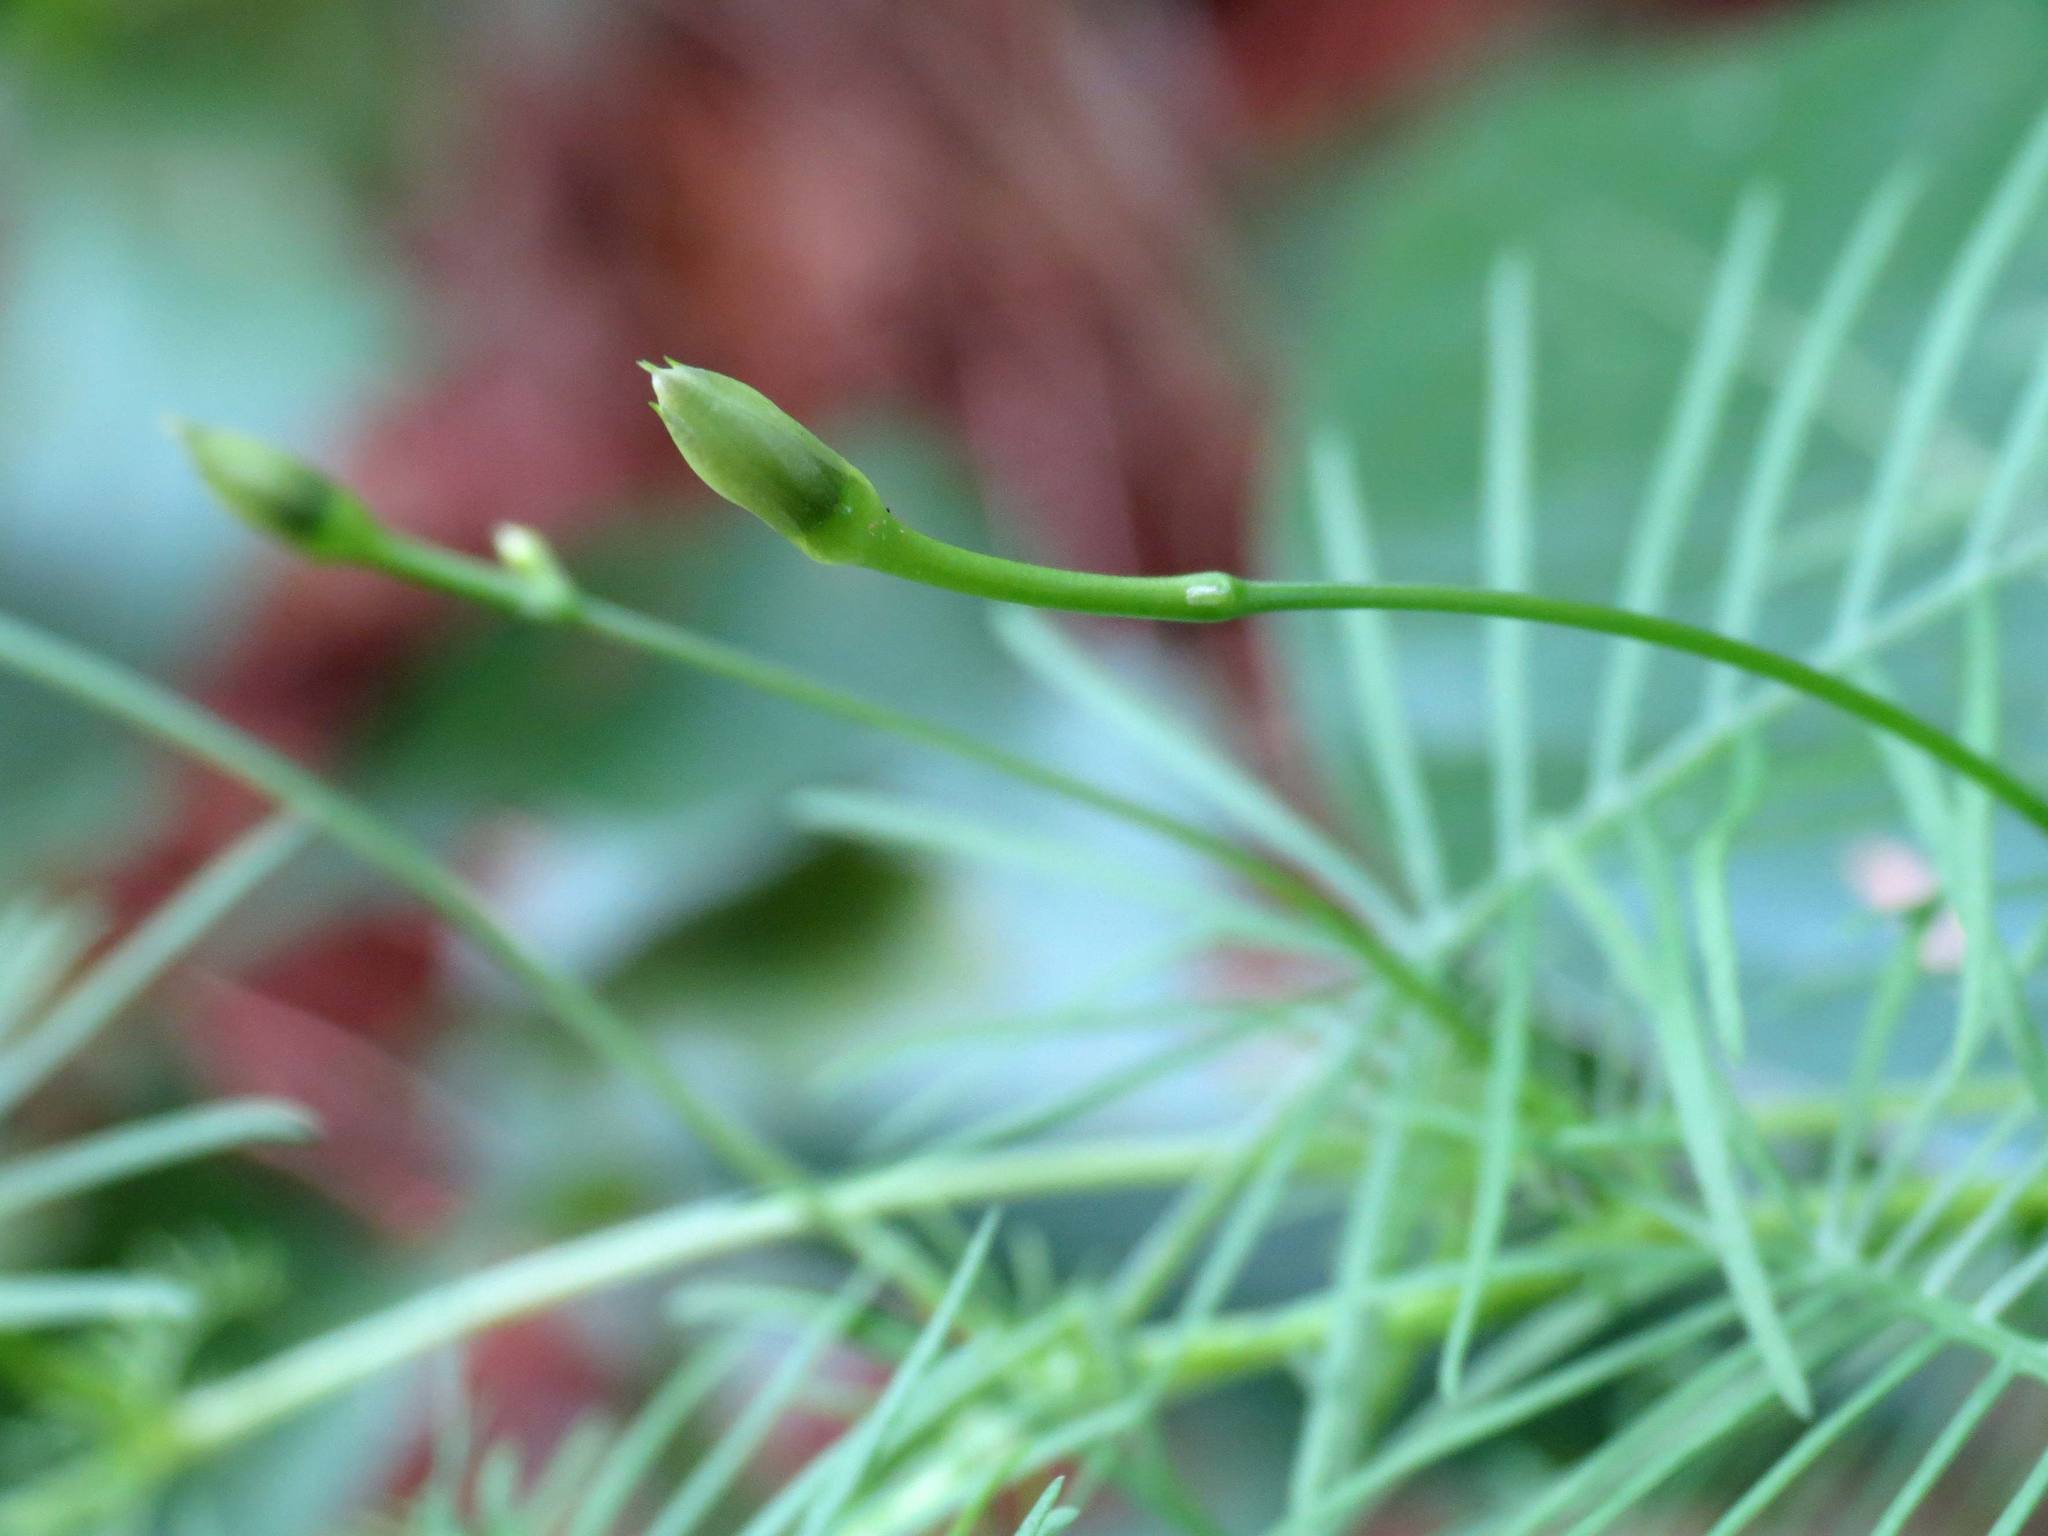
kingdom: Plantae
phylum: Tracheophyta
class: Magnoliopsida
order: Solanales
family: Convolvulaceae
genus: Ipomoea
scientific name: Ipomoea quamoclit
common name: Cypress vine
